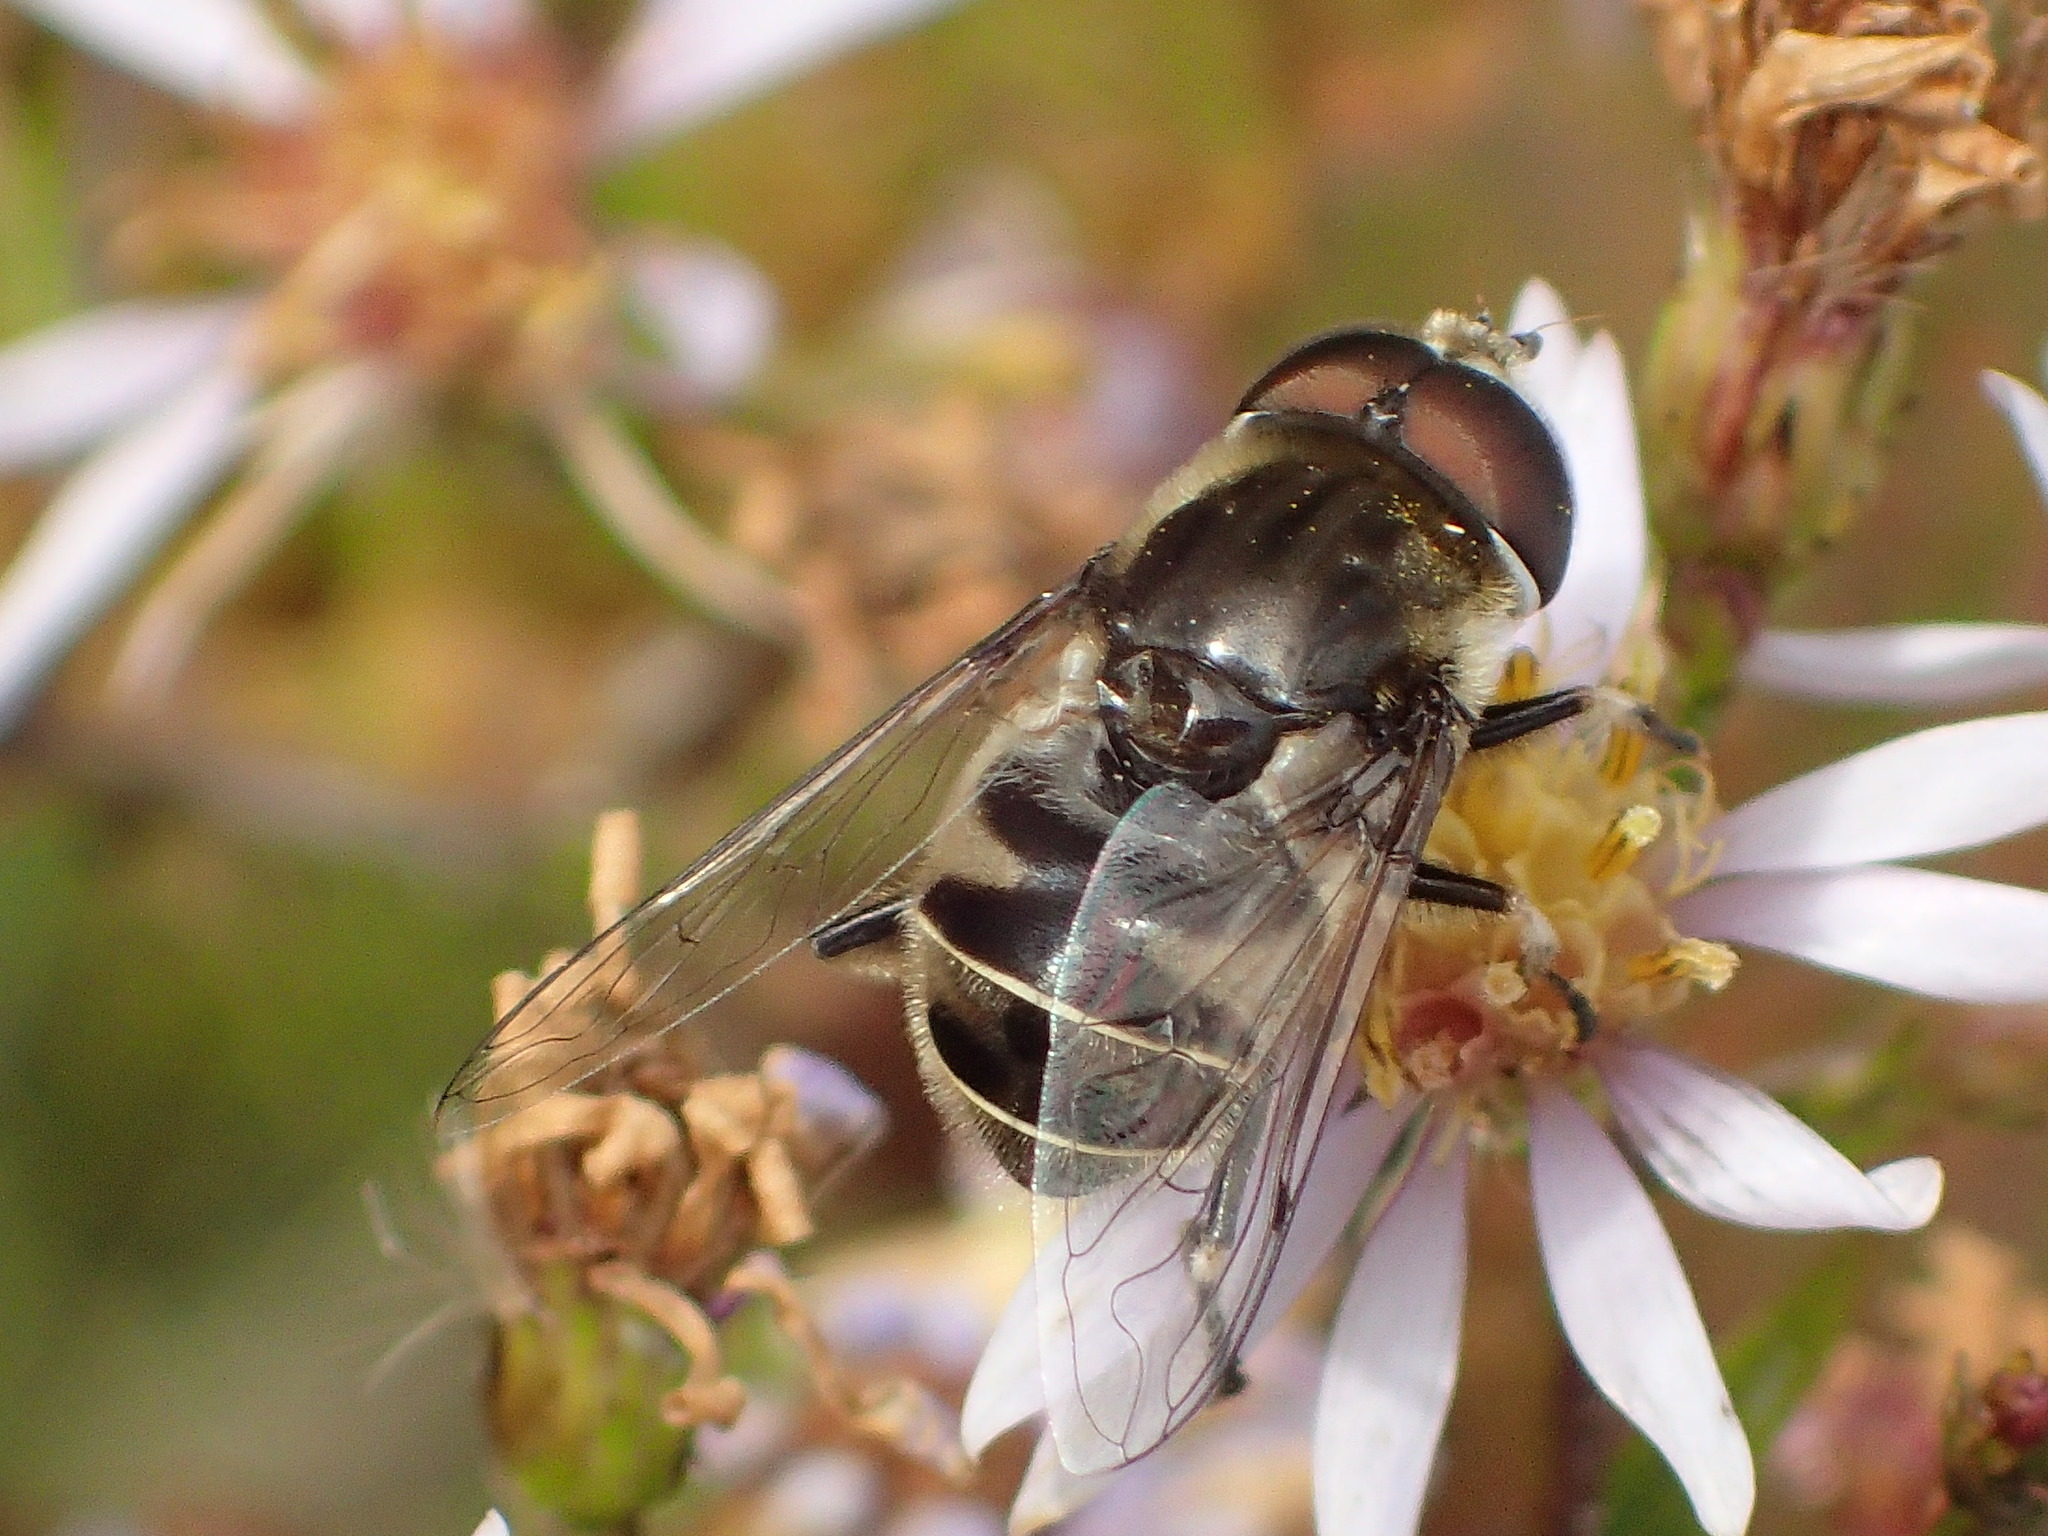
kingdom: Animalia
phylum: Arthropoda
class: Insecta
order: Diptera
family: Syrphidae
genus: Eristalis
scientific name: Eristalis dimidiata
